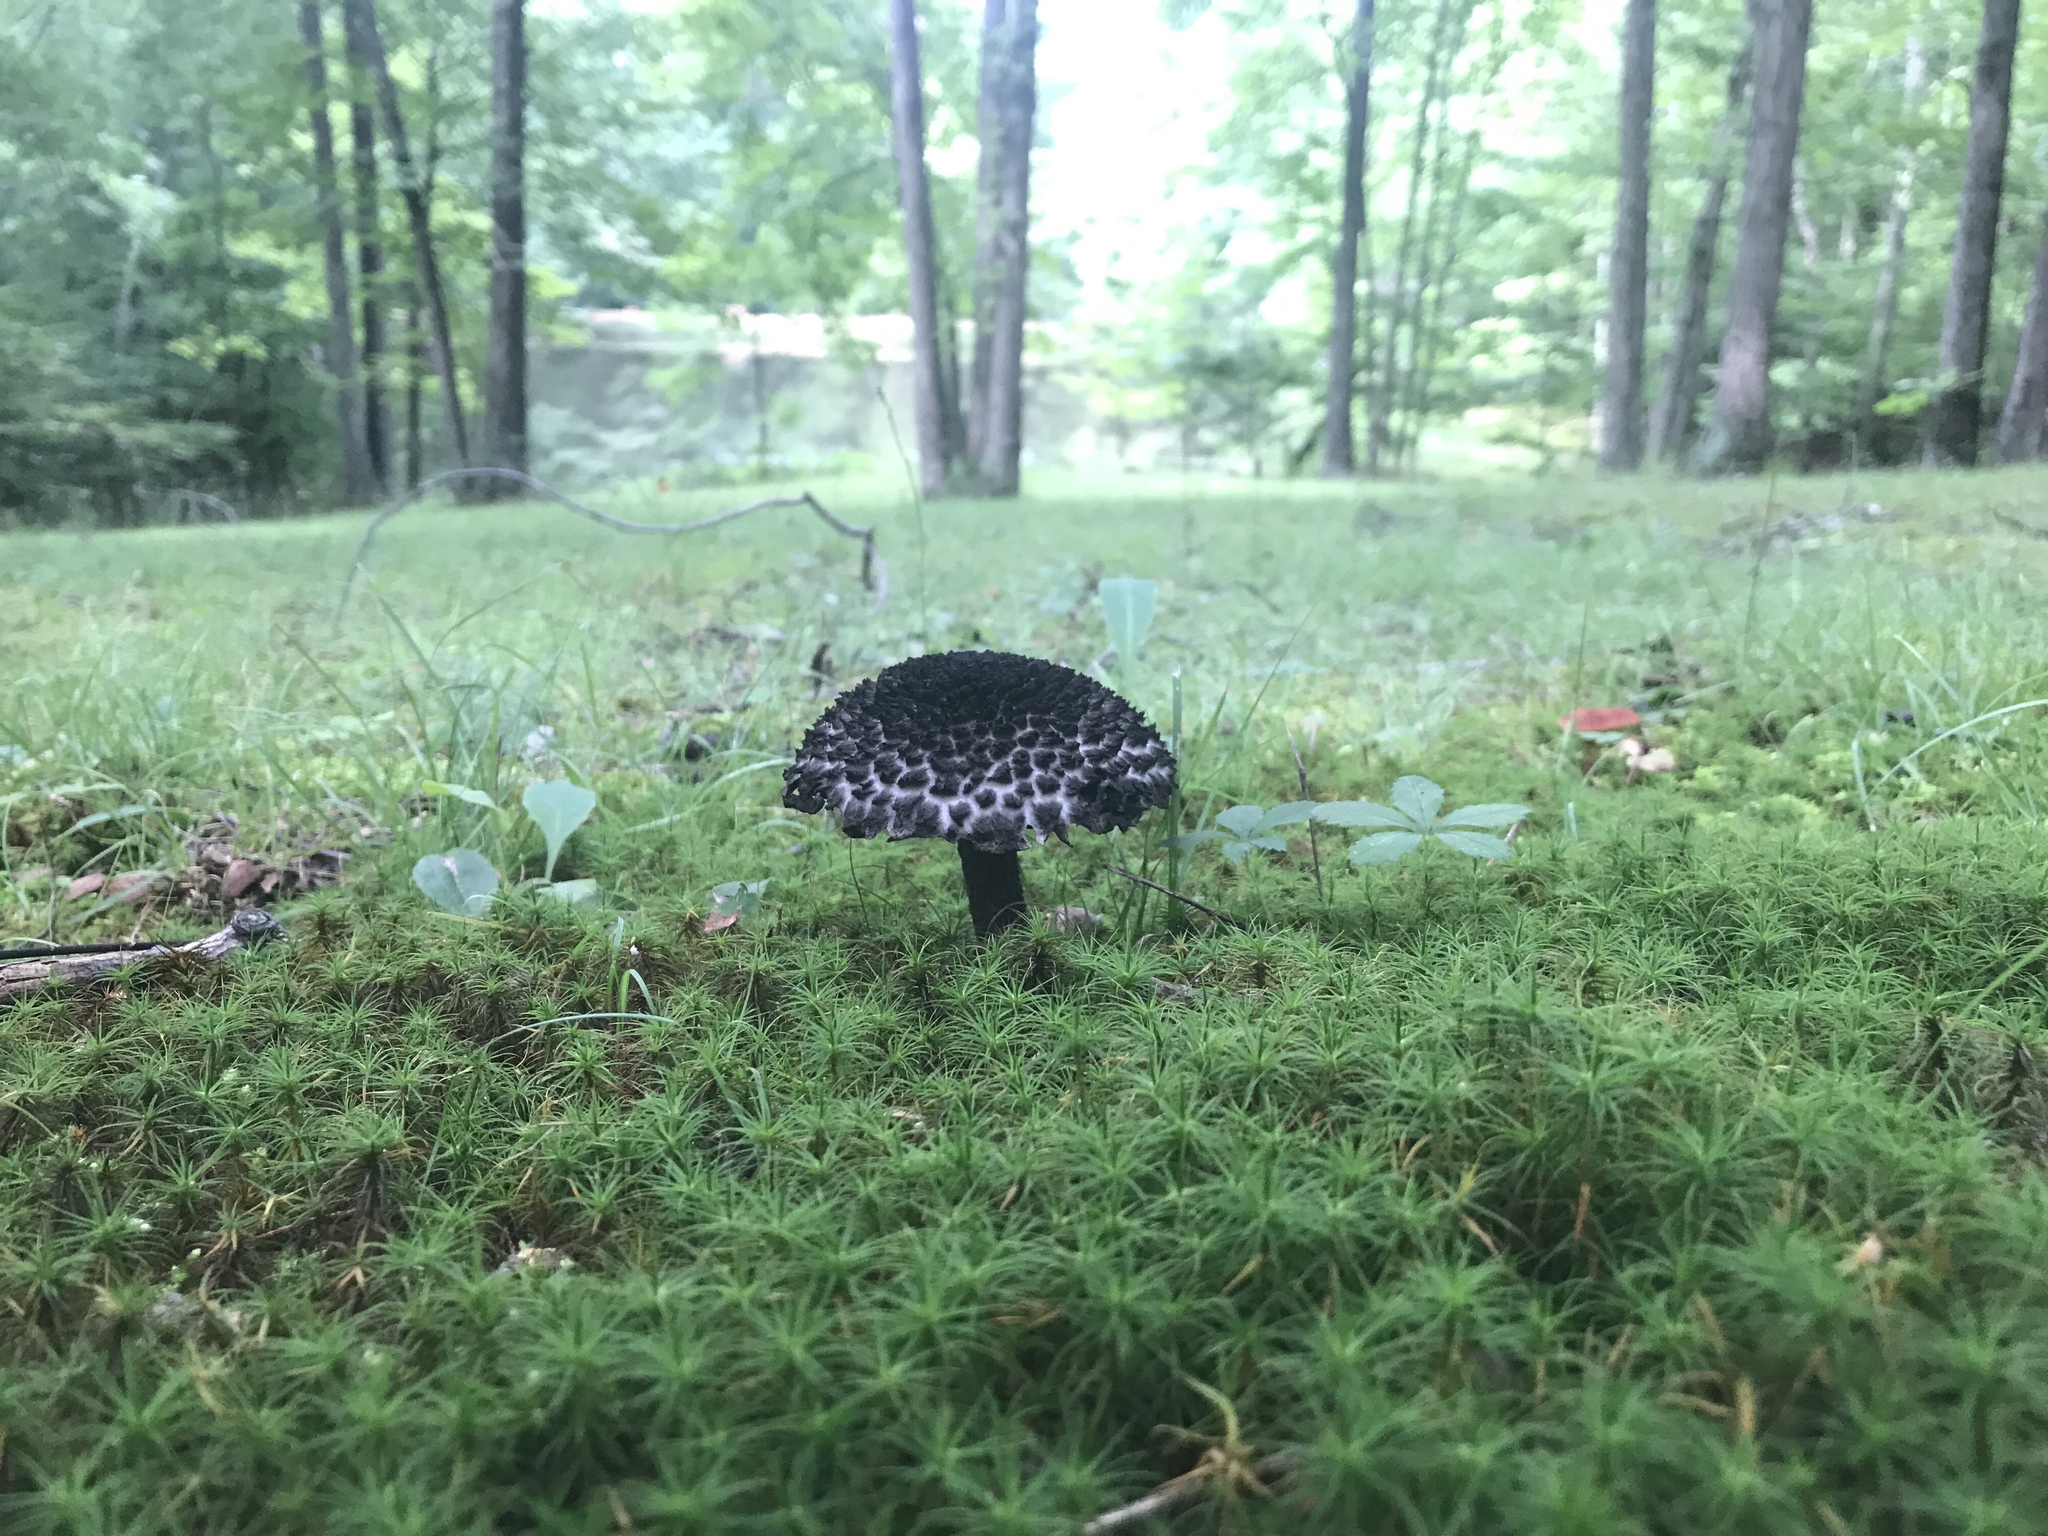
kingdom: Fungi
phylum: Basidiomycota
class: Agaricomycetes
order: Boletales
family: Boletaceae
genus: Strobilomyces
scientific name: Strobilomyces strobilaceus
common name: Old man of the woods
